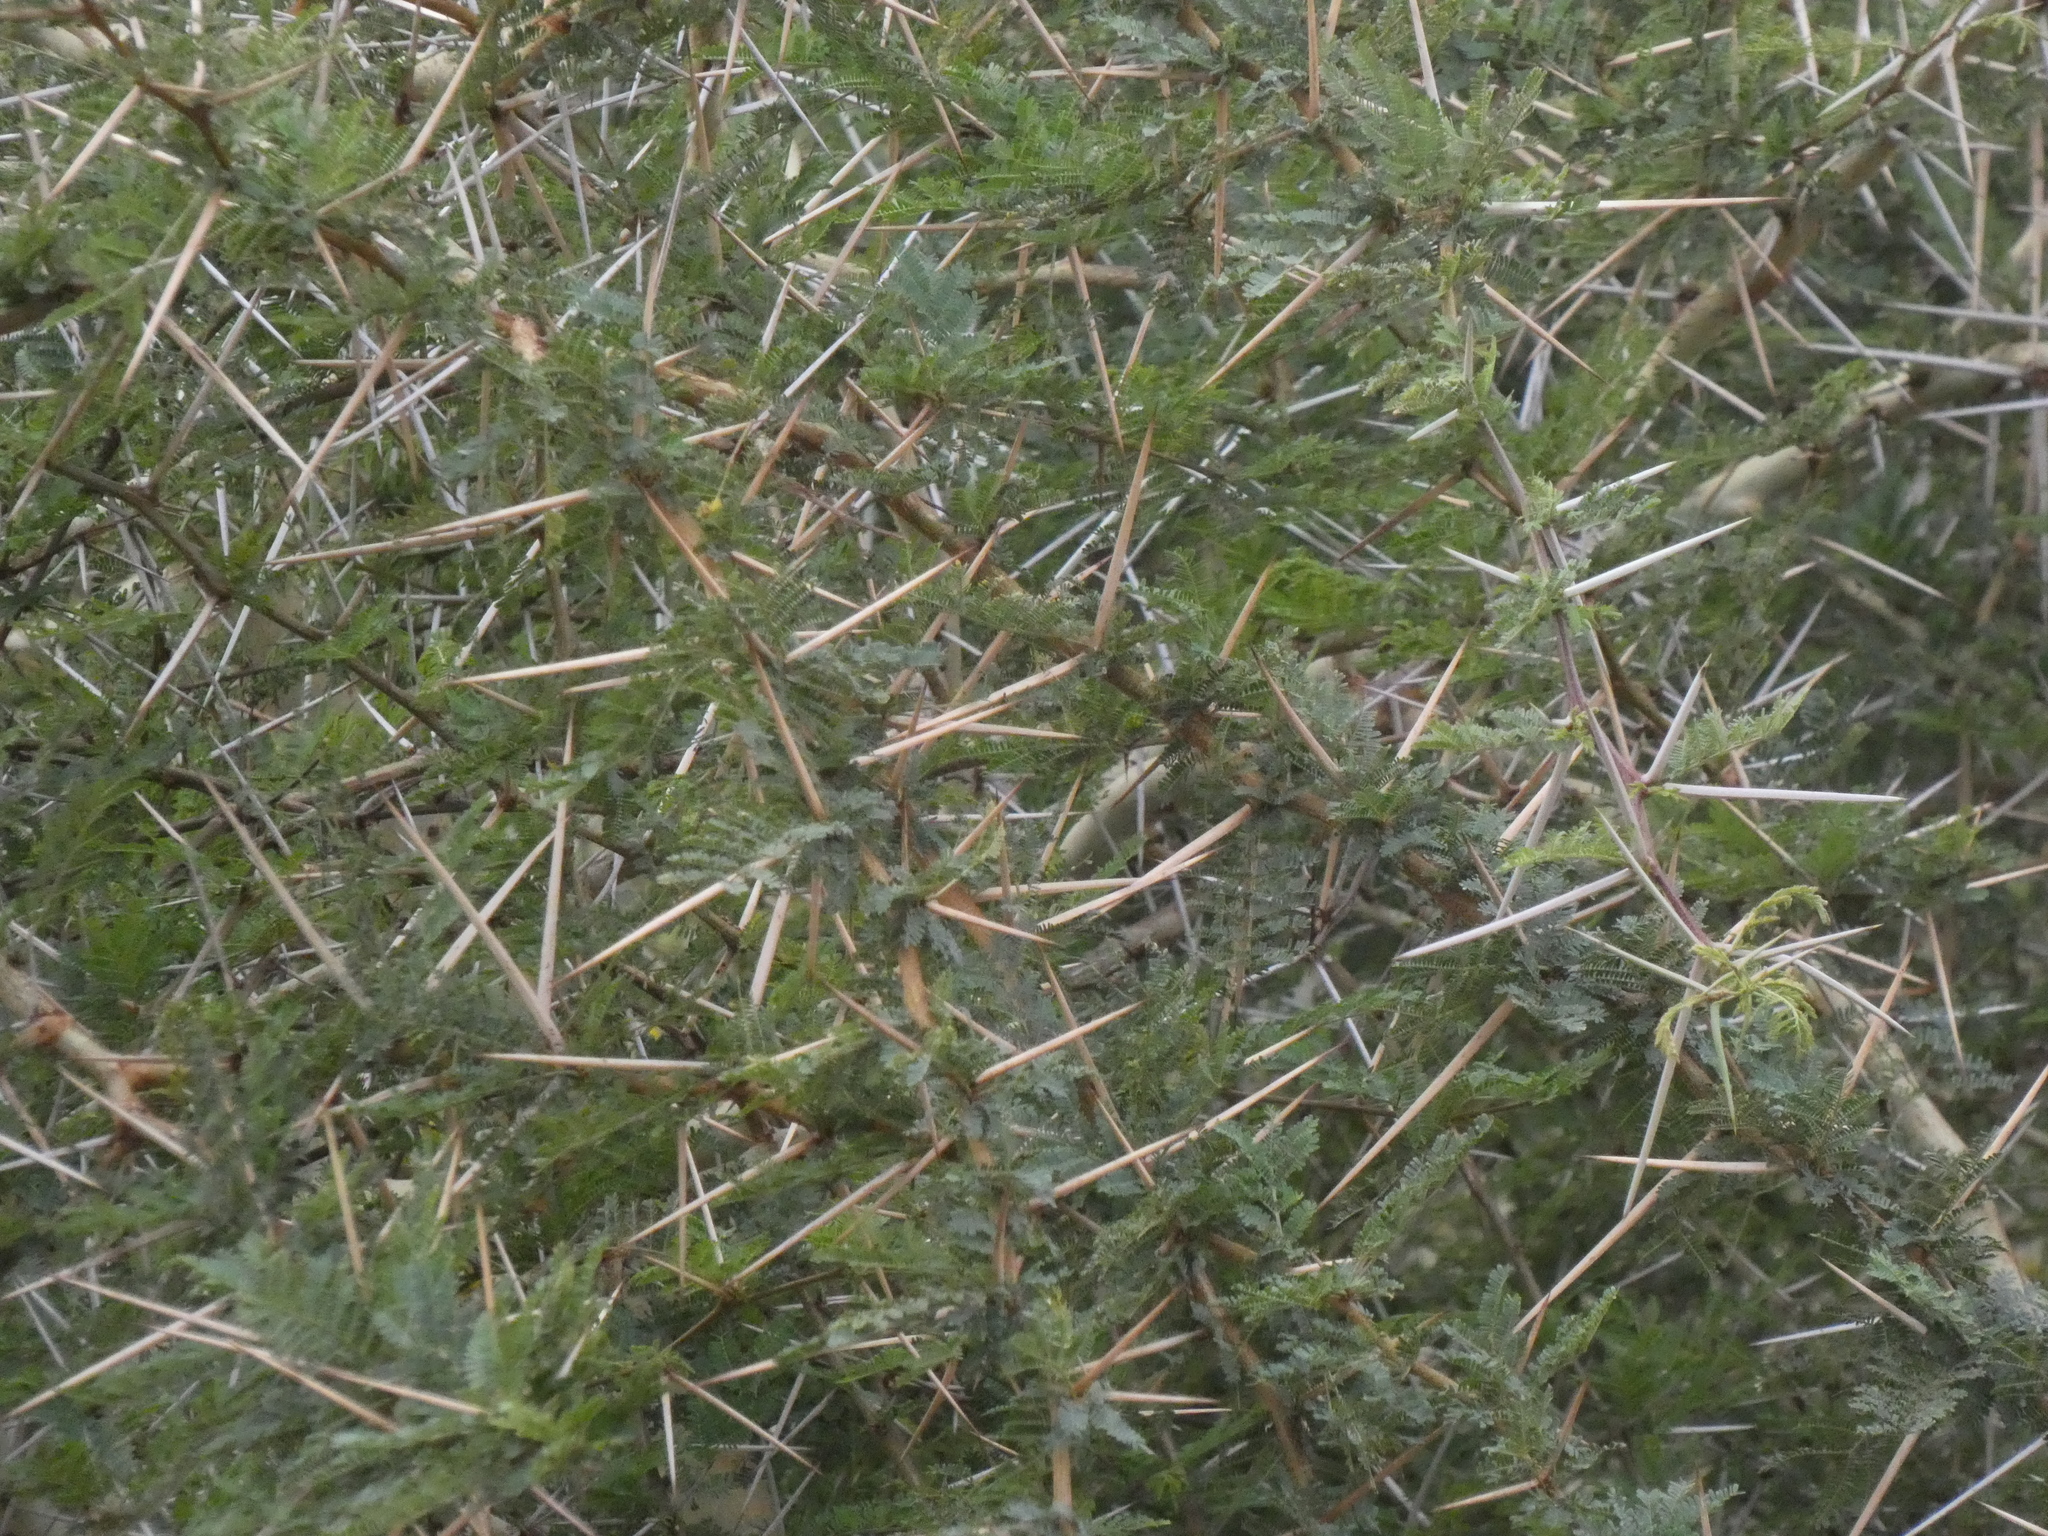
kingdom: Plantae
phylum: Tracheophyta
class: Magnoliopsida
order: Fabales
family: Fabaceae
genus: Vachellia
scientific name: Vachellia tortilis
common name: Umbrella thorn acacia
